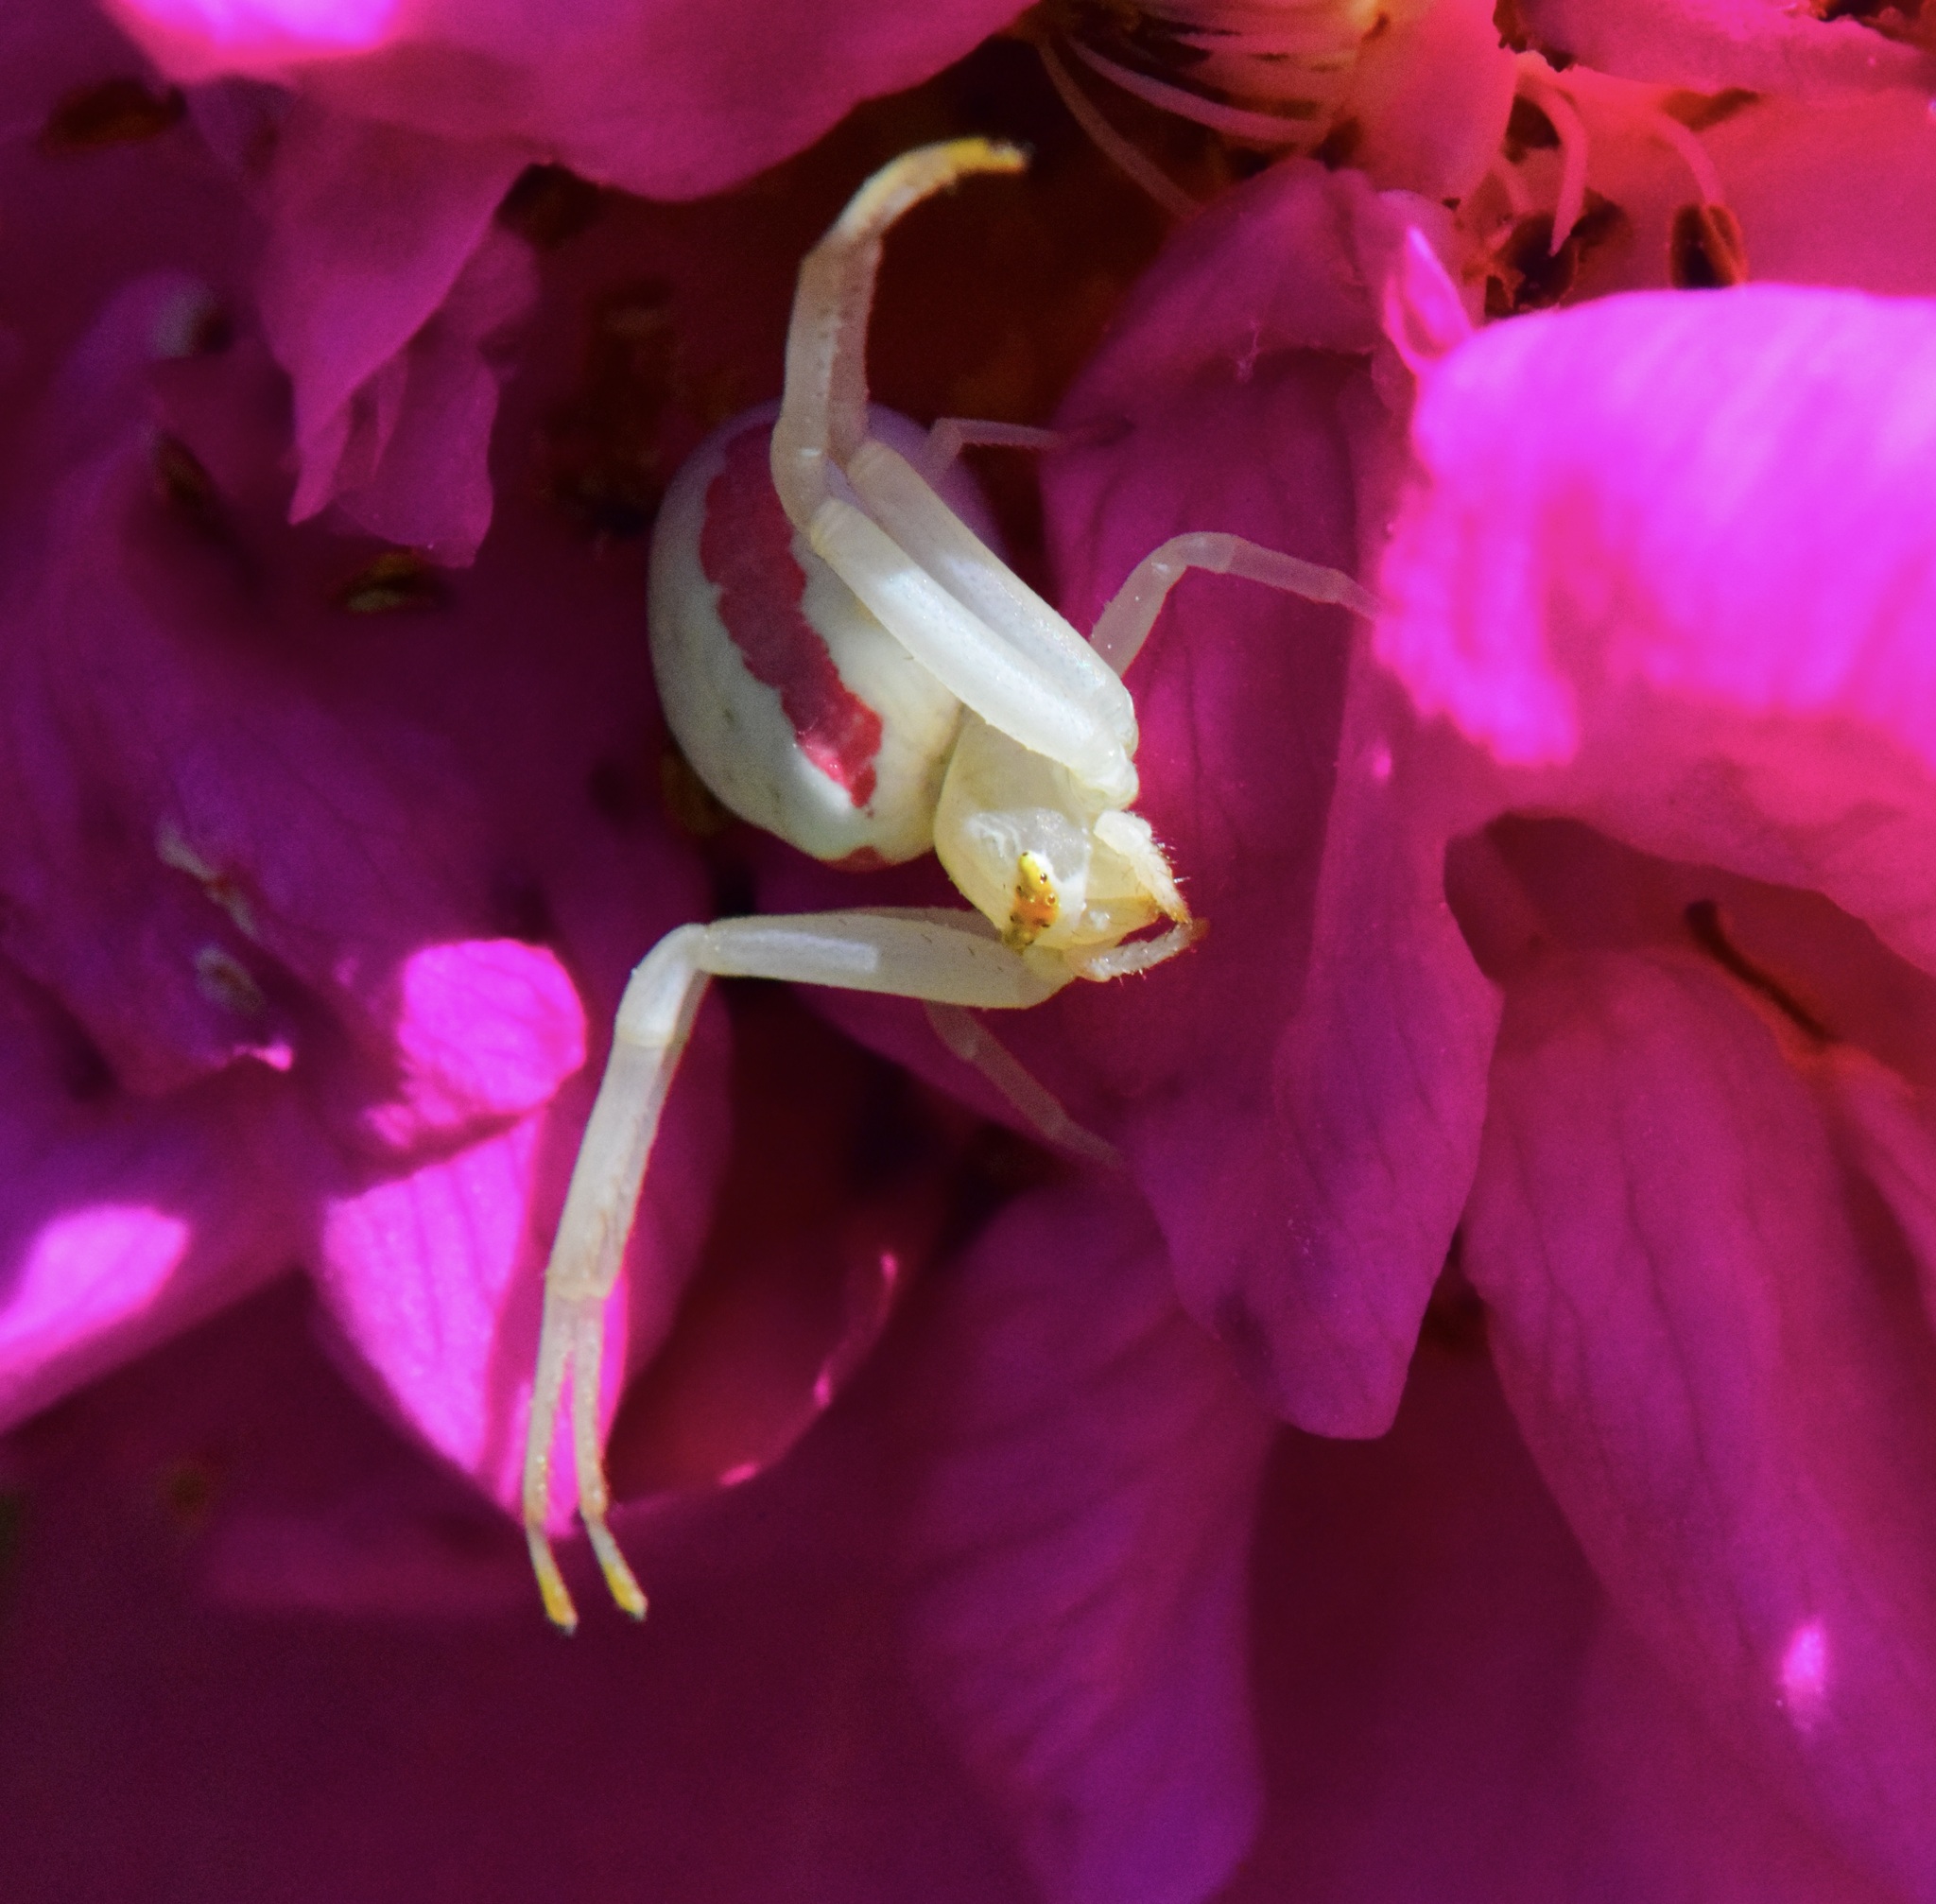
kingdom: Animalia
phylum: Arthropoda
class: Arachnida
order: Araneae
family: Thomisidae
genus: Misumena
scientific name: Misumena vatia
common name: Goldenrod crab spider
